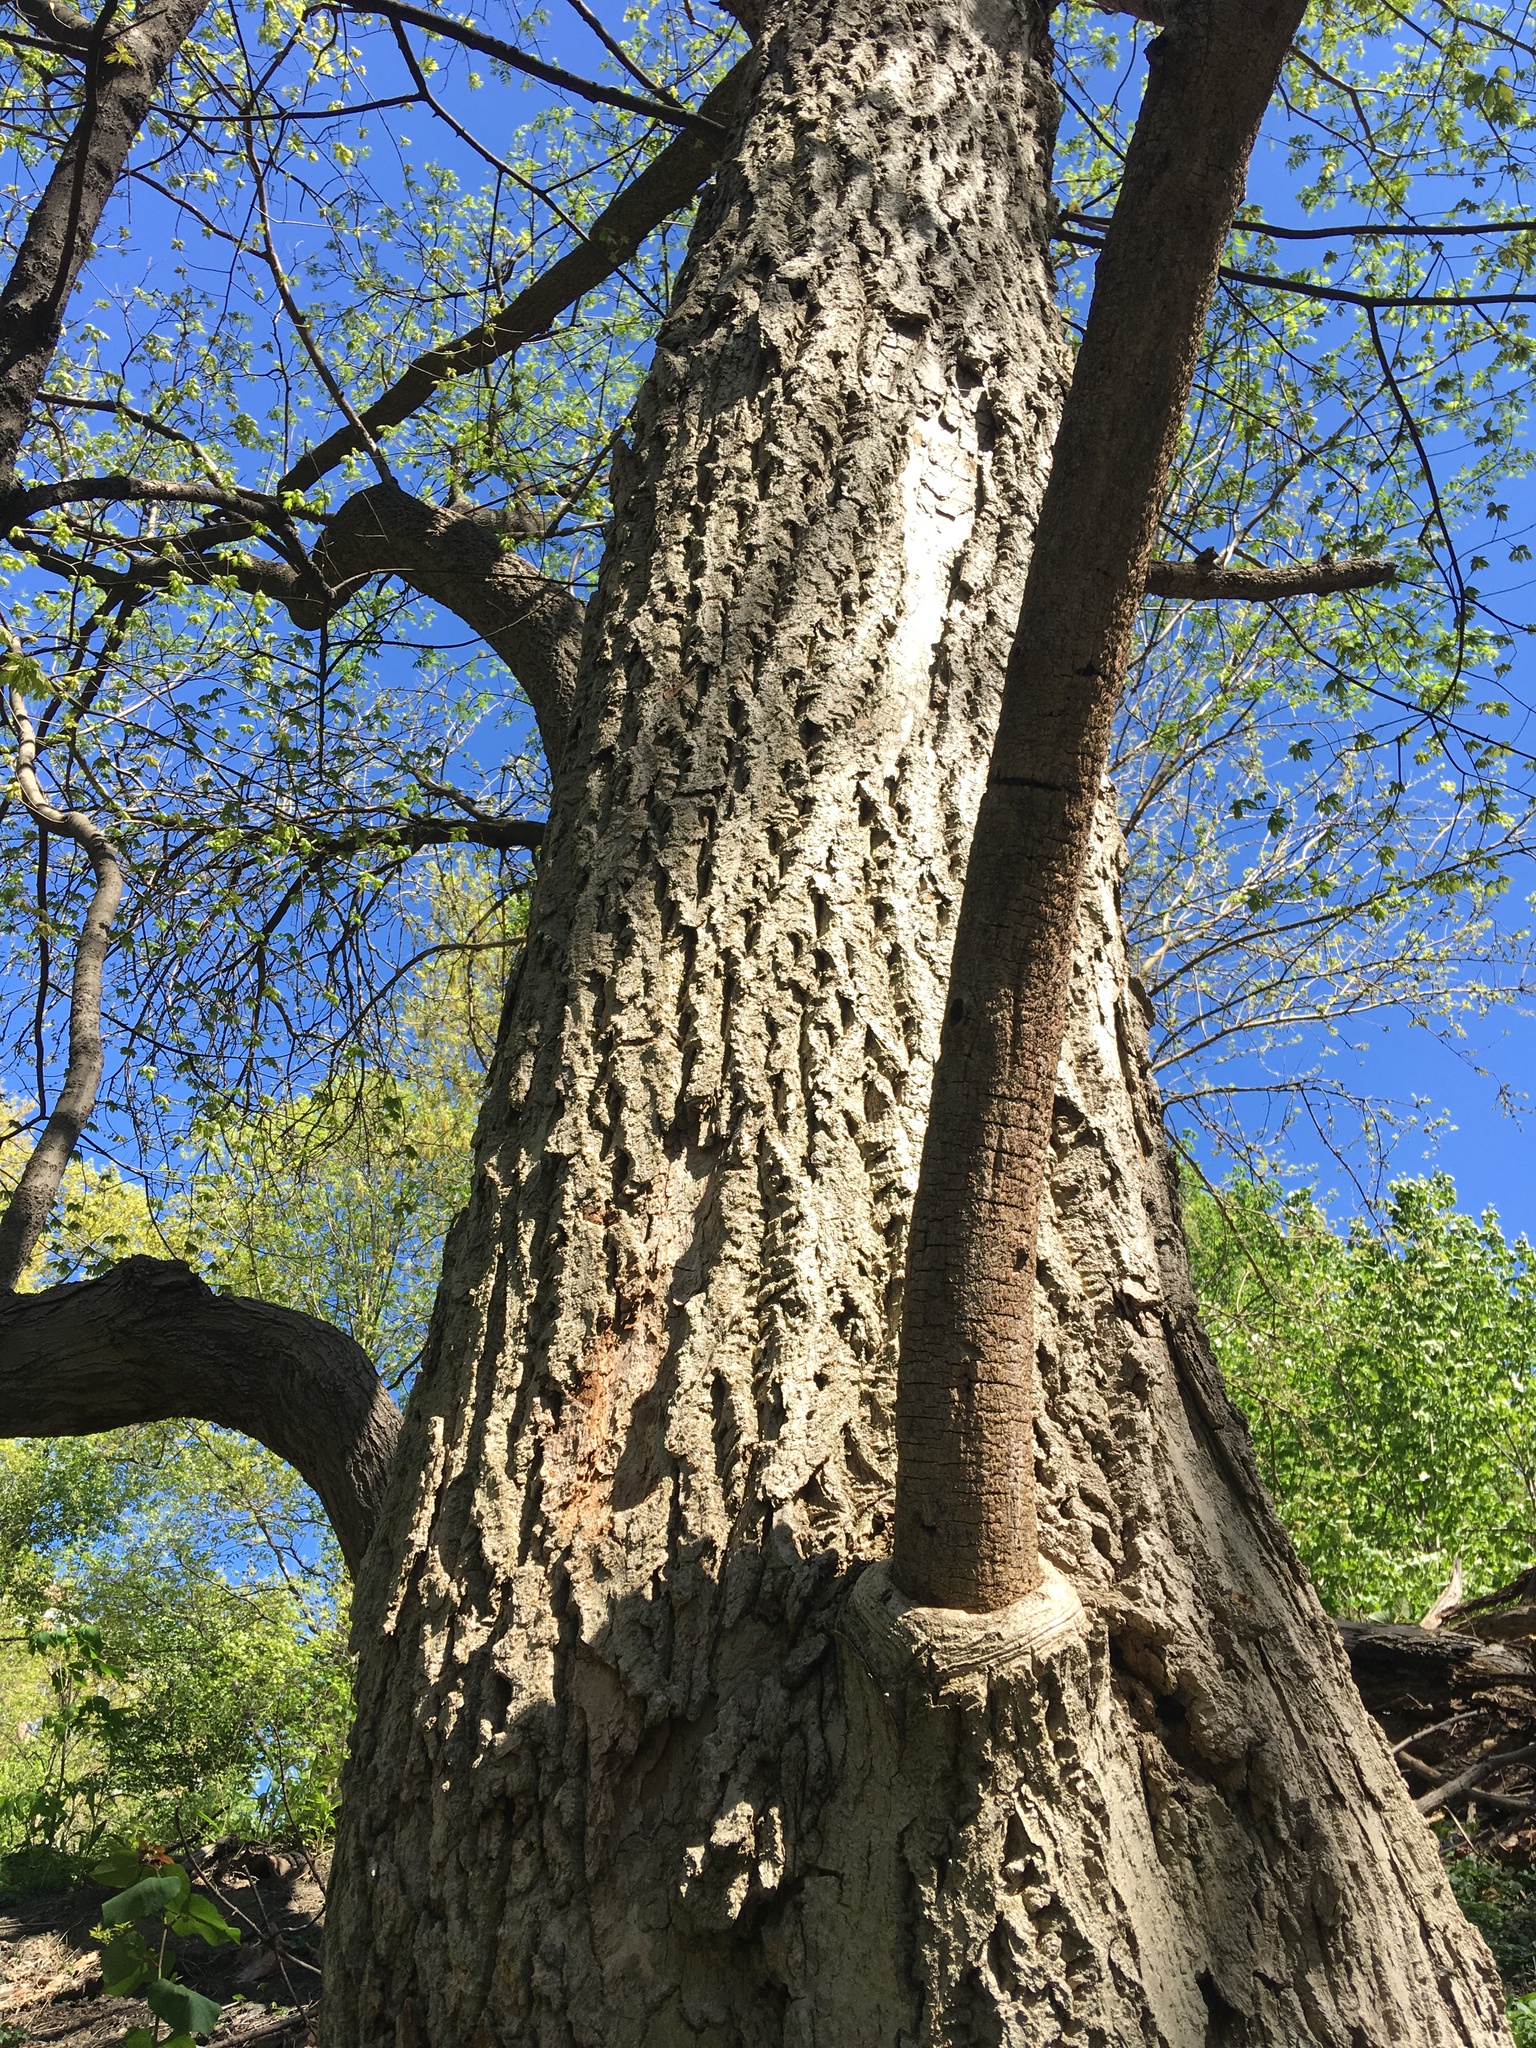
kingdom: Plantae
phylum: Tracheophyta
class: Magnoliopsida
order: Sapindales
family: Rutaceae
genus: Phellodendron
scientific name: Phellodendron amurense
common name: Amur corktree
